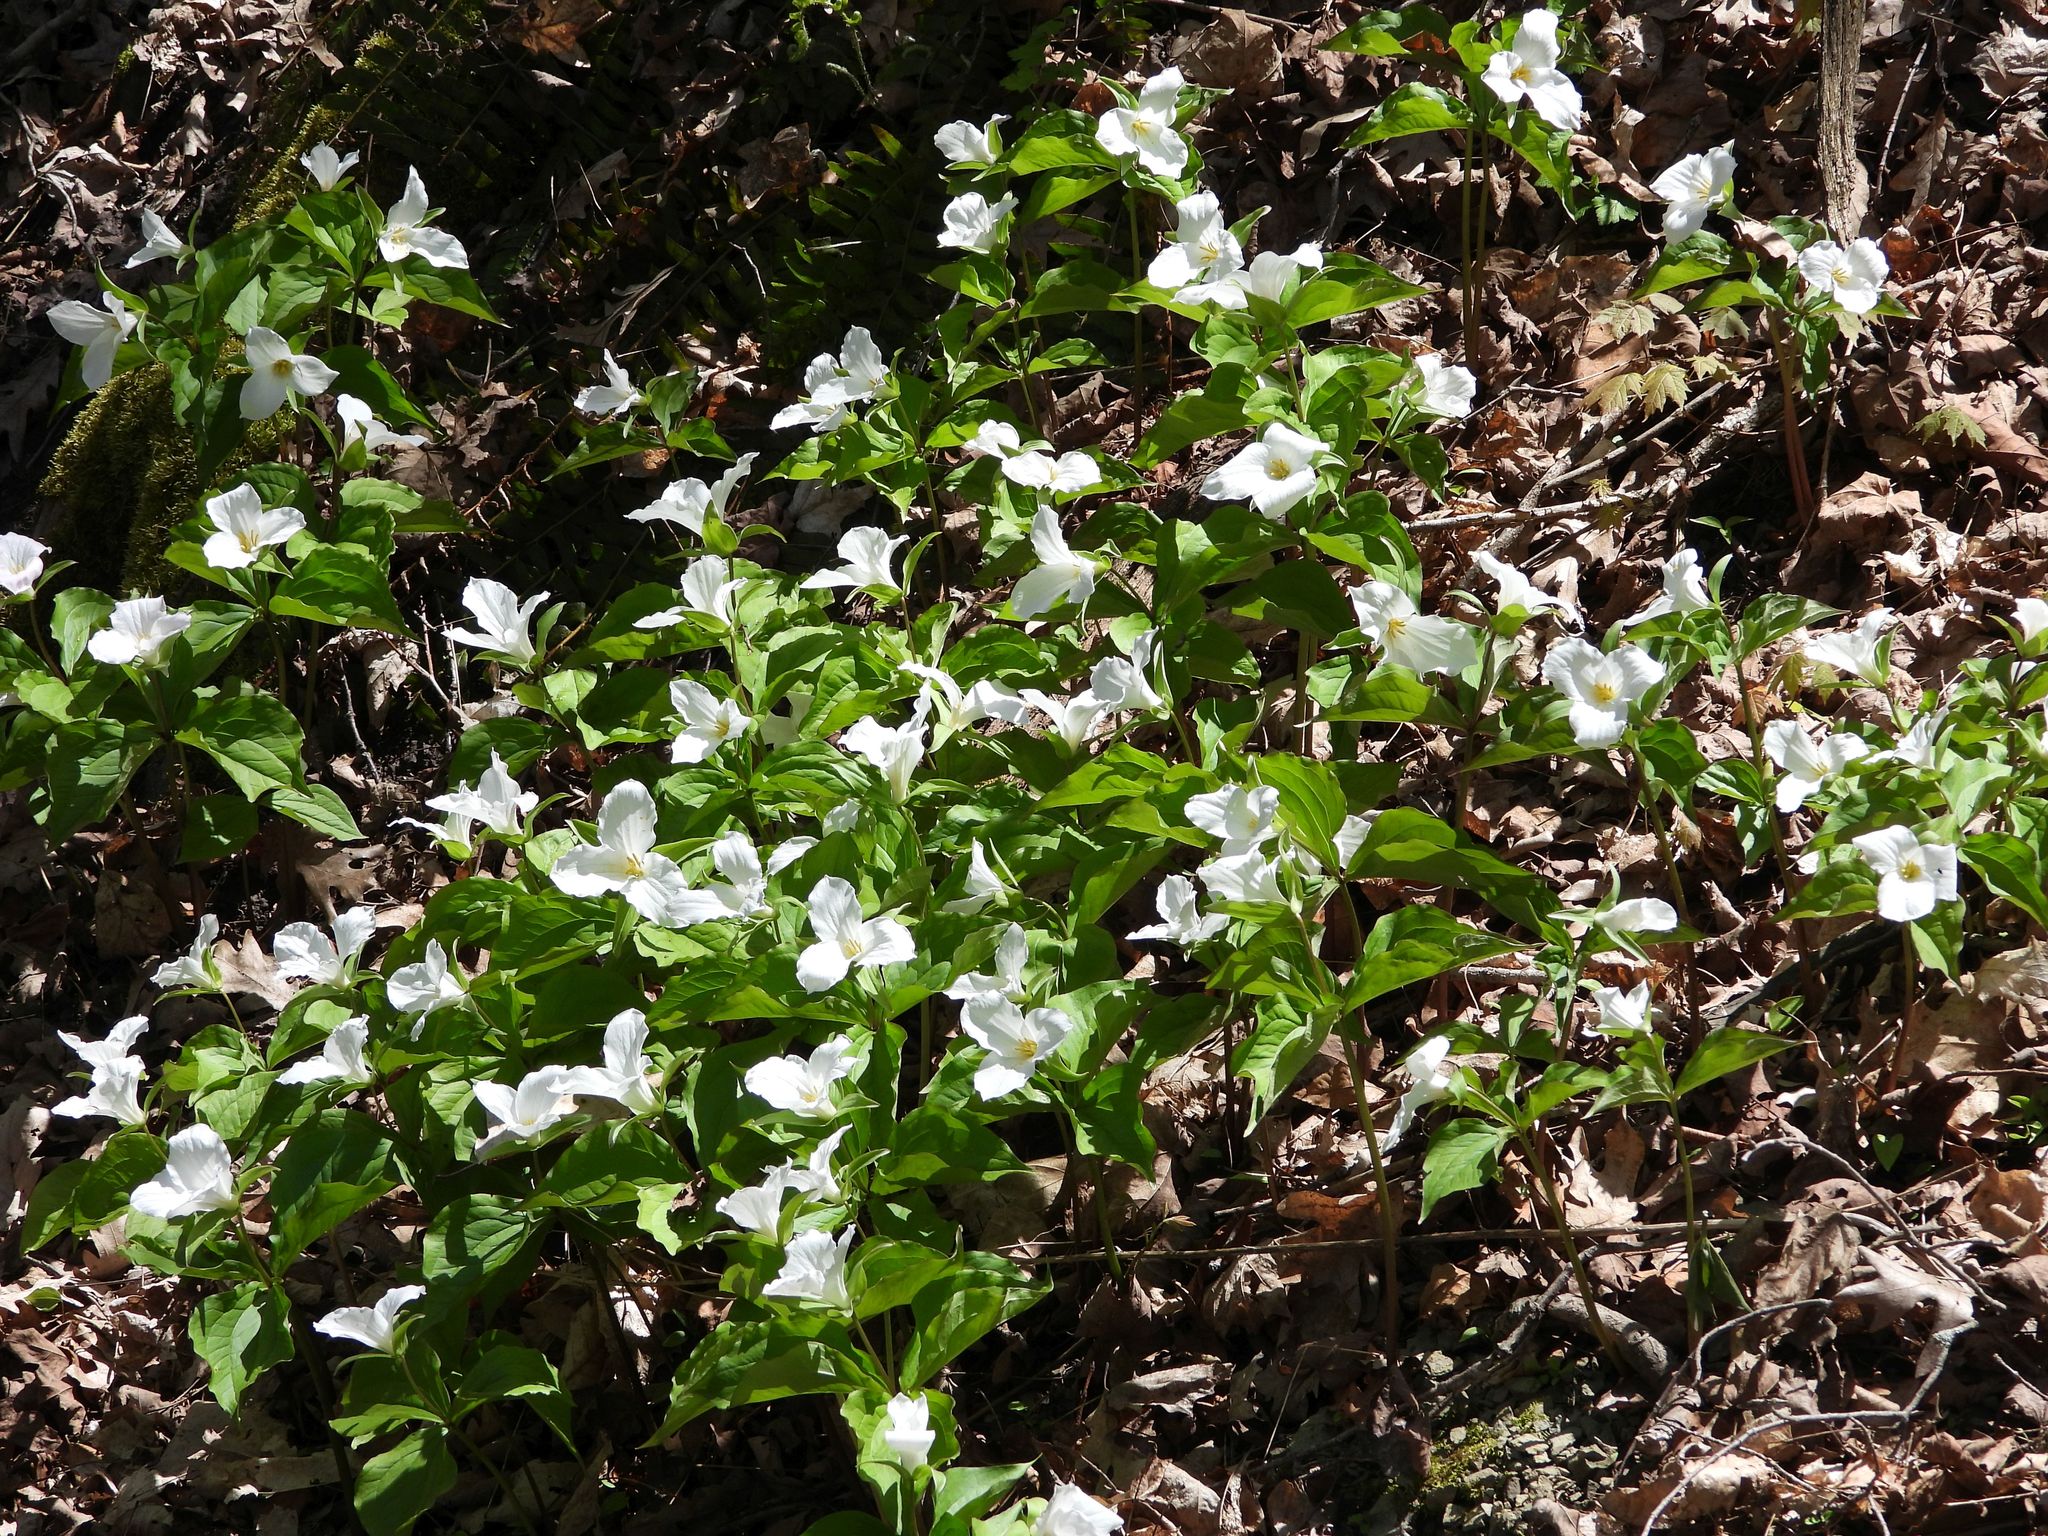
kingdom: Plantae
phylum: Tracheophyta
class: Liliopsida
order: Liliales
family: Melanthiaceae
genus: Trillium
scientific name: Trillium grandiflorum
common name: Great white trillium
